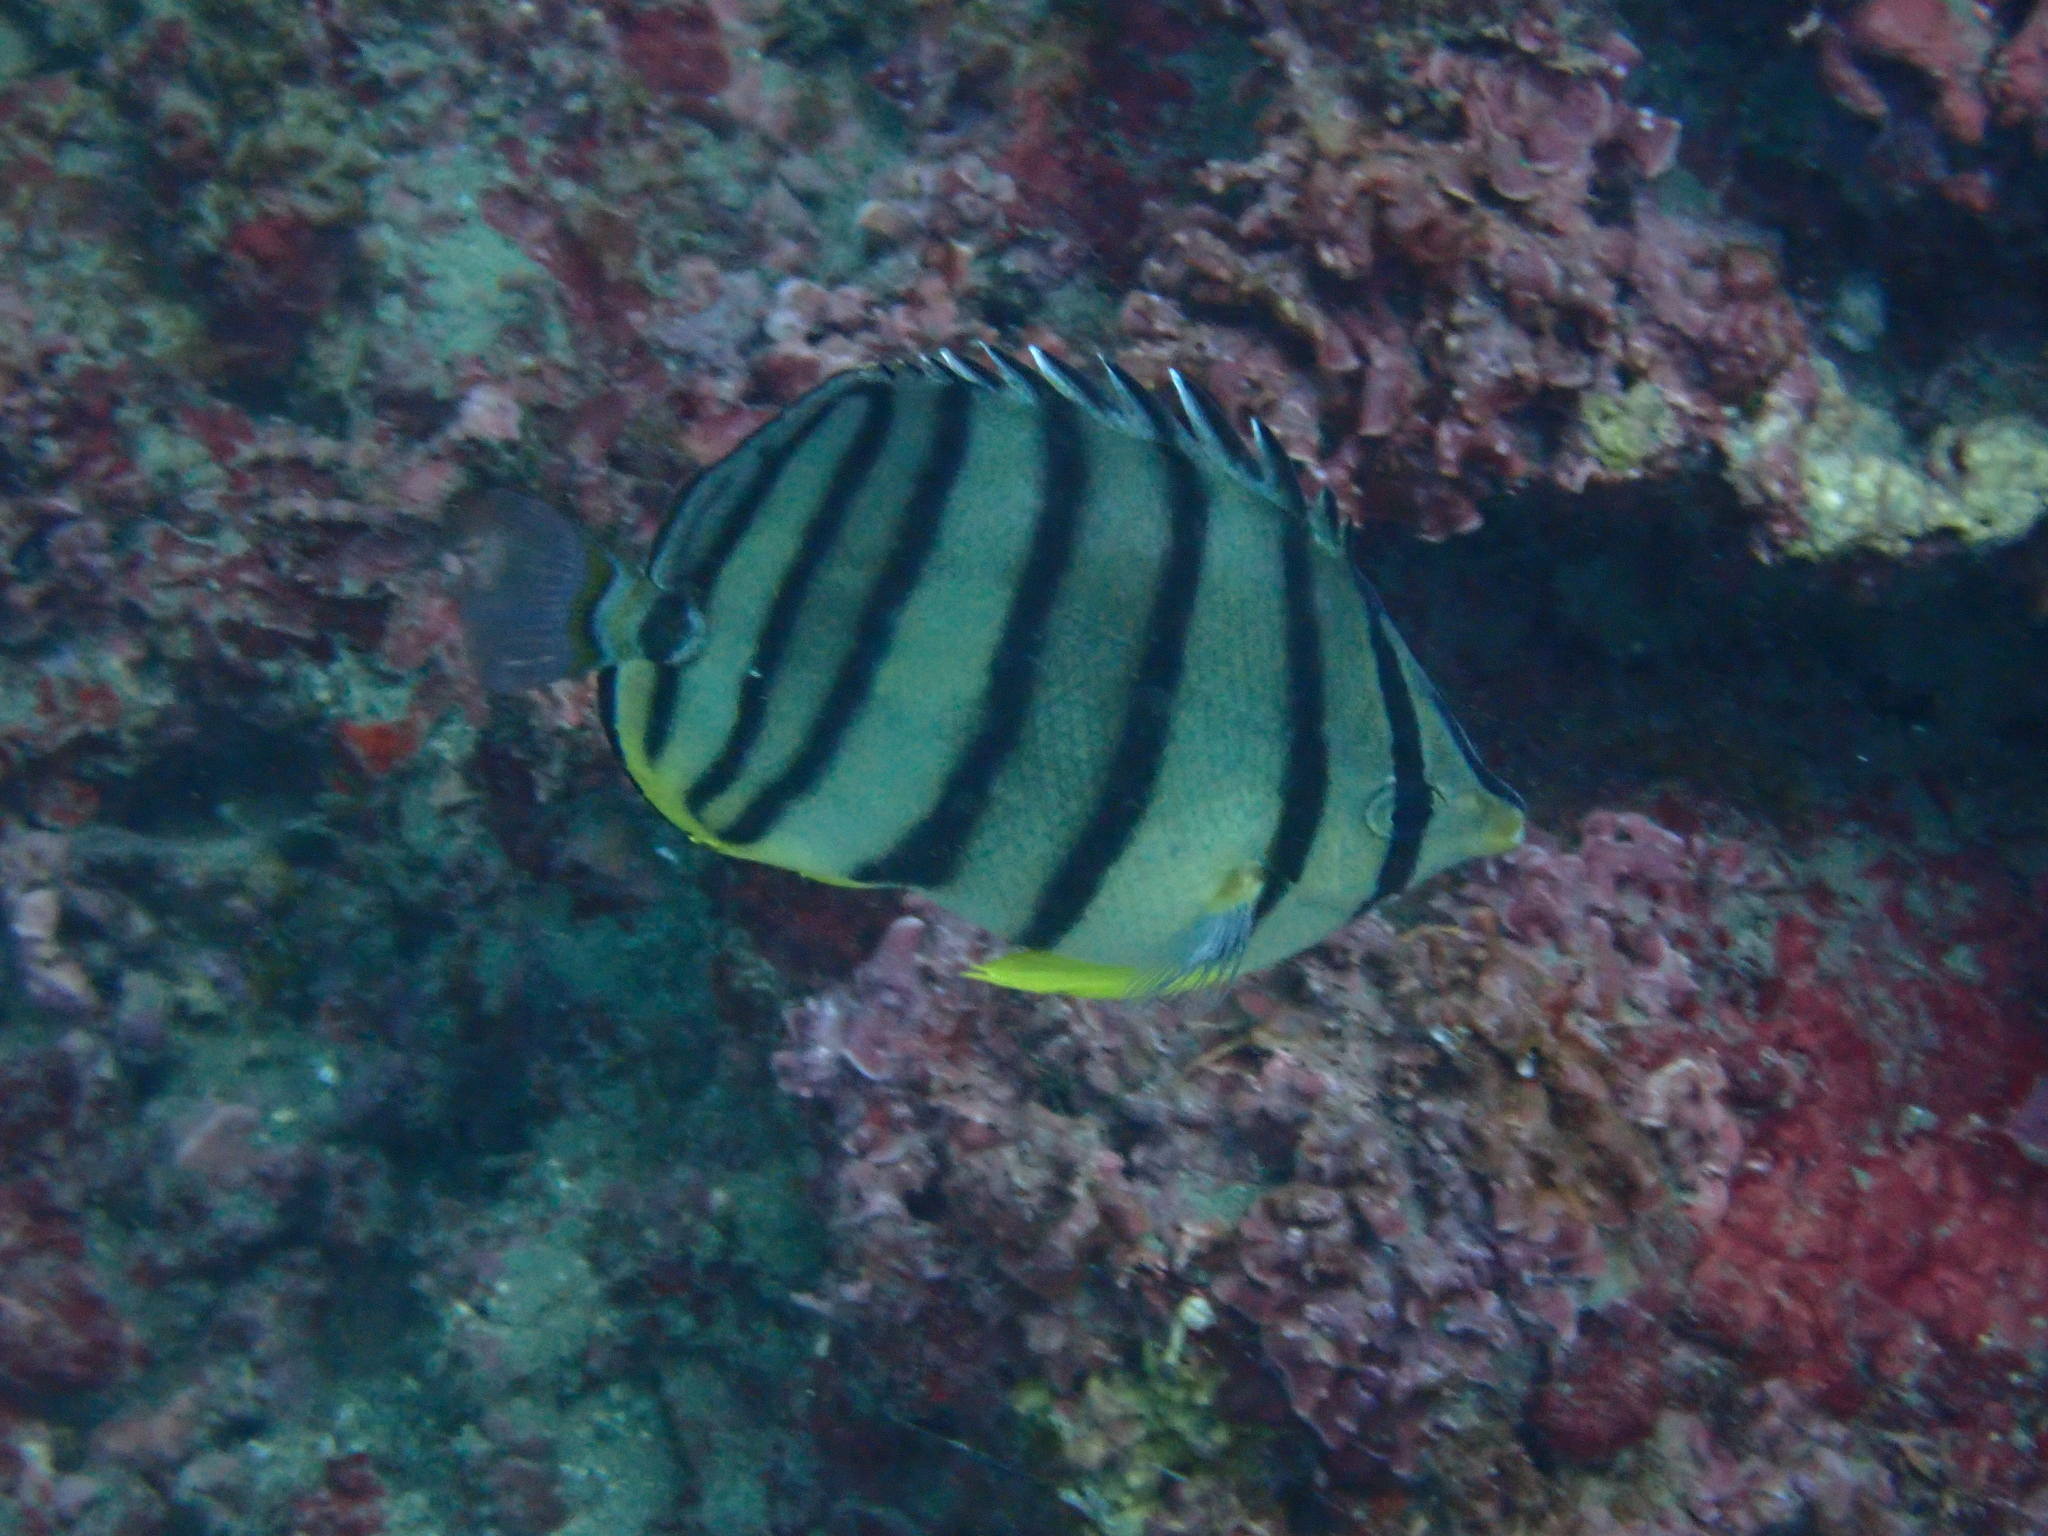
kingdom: Animalia
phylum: Chordata
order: Perciformes
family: Chaetodontidae
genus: Chaetodon
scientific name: Chaetodon octofasciatus
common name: Eightband butterflyfish
